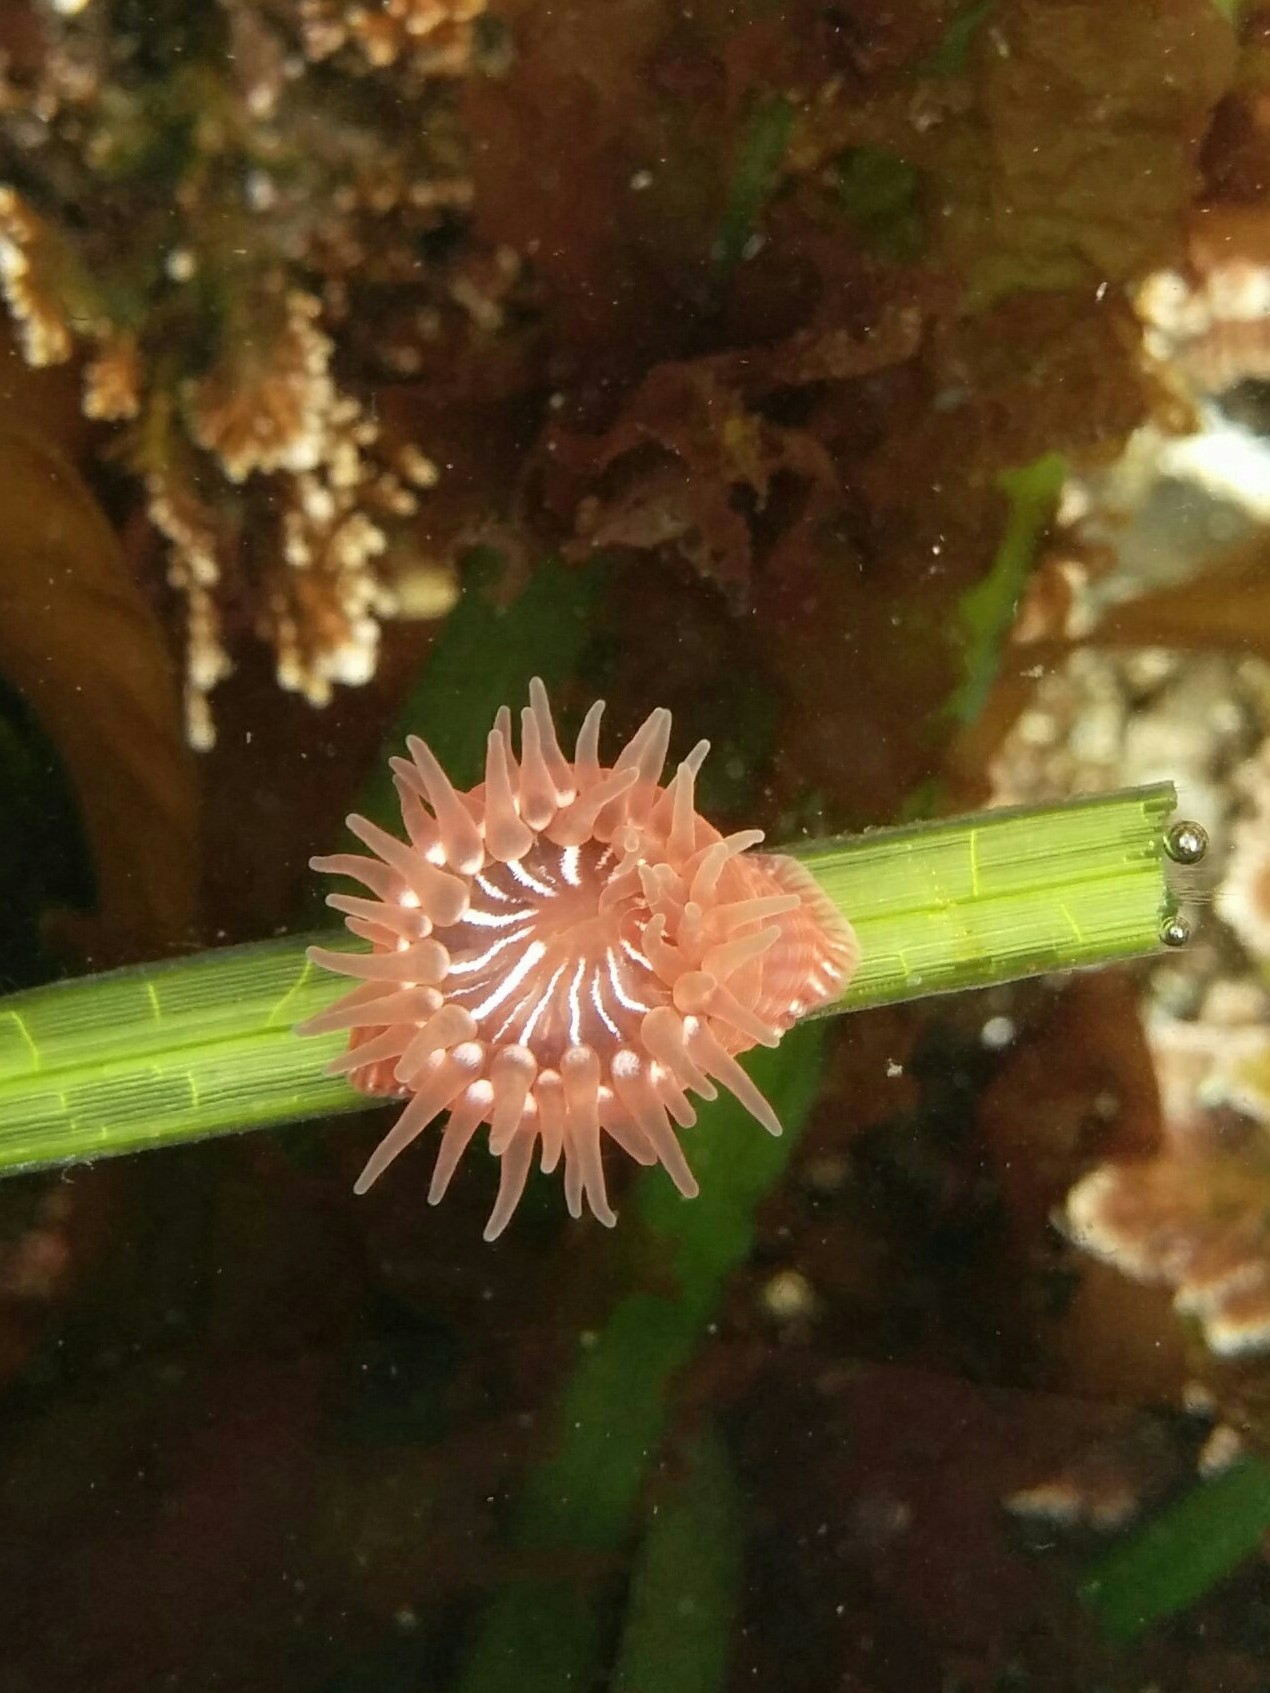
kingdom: Animalia
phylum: Cnidaria
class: Anthozoa
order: Actiniaria
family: Actiniidae
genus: Epiactis
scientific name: Epiactis prolifera
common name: Brooding anemone
